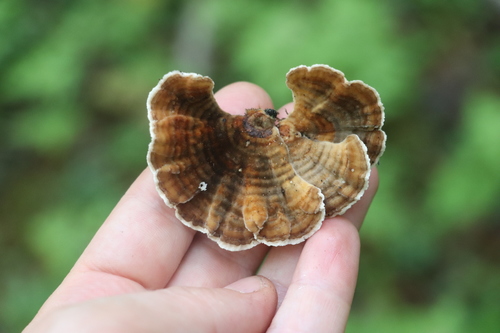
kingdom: Fungi
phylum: Basidiomycota
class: Agaricomycetes
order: Polyporales
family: Polyporaceae
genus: Trametes
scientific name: Trametes versicolor
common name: Turkeytail
